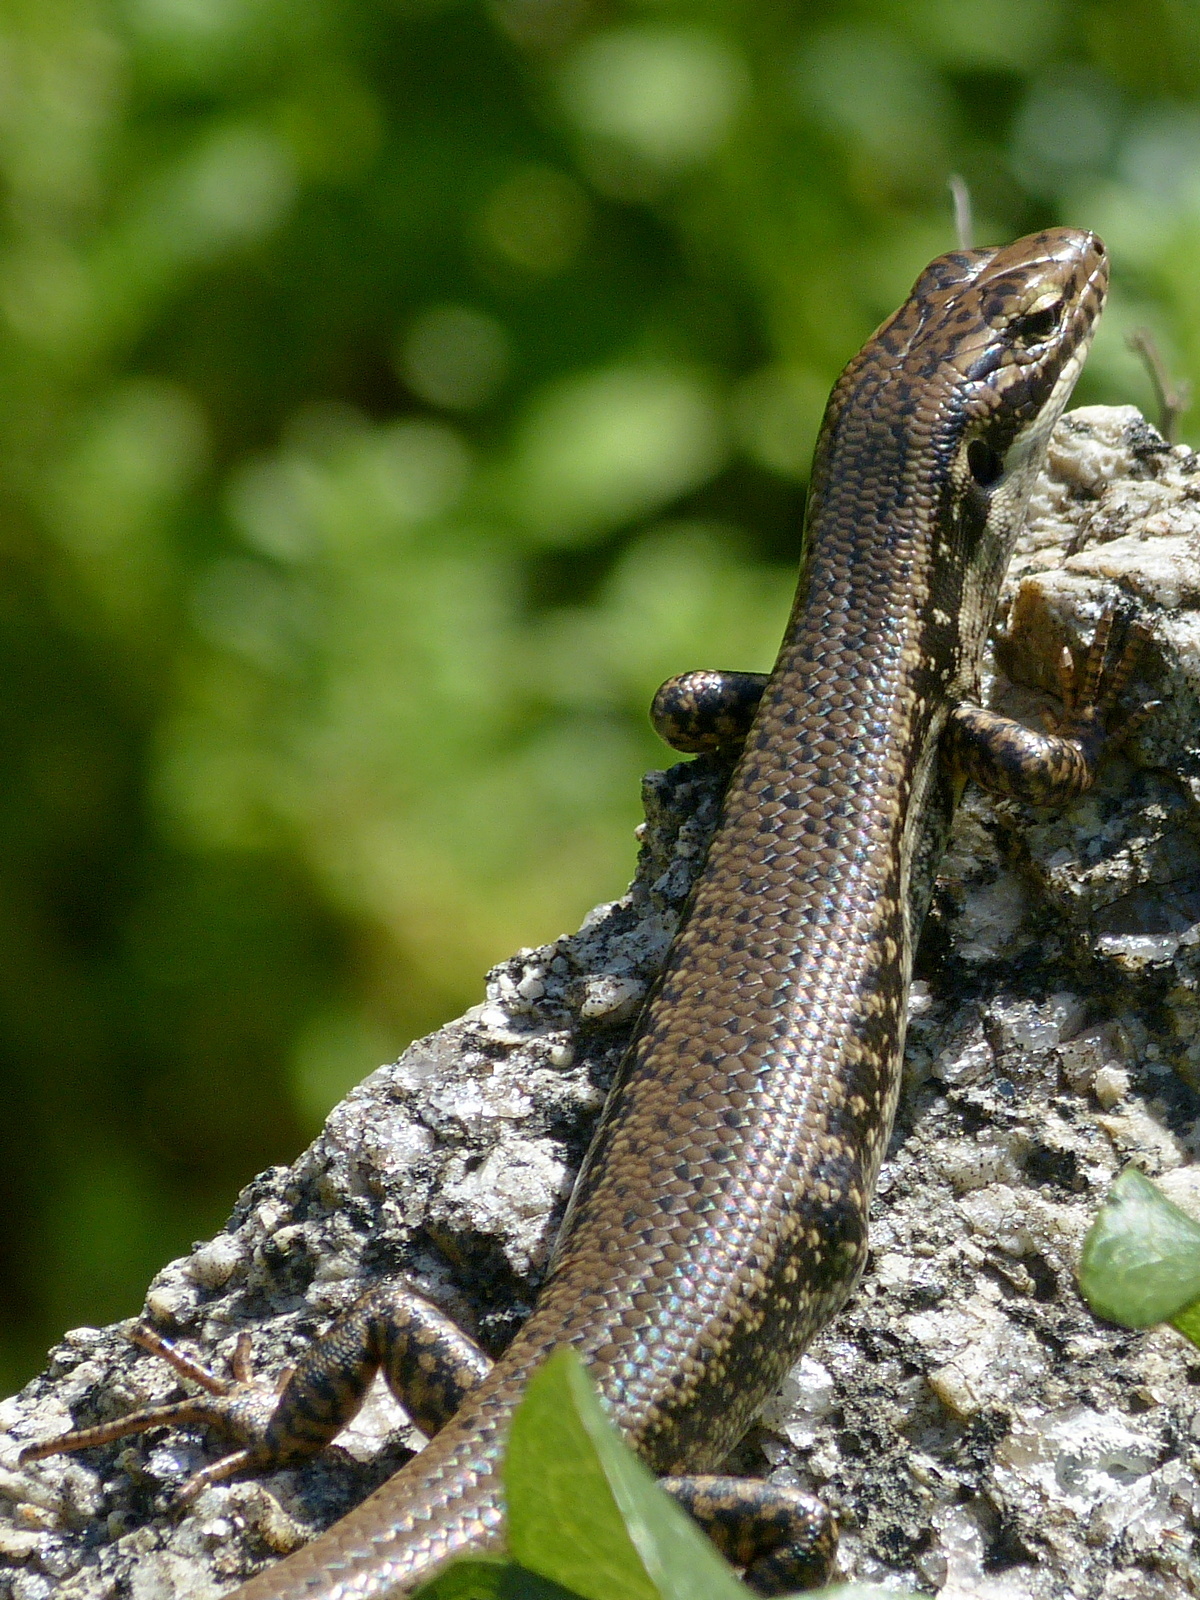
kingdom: Animalia
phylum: Chordata
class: Squamata
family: Scincidae
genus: Eulamprus
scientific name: Eulamprus heatwolei
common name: Warm-temperate water-skink
